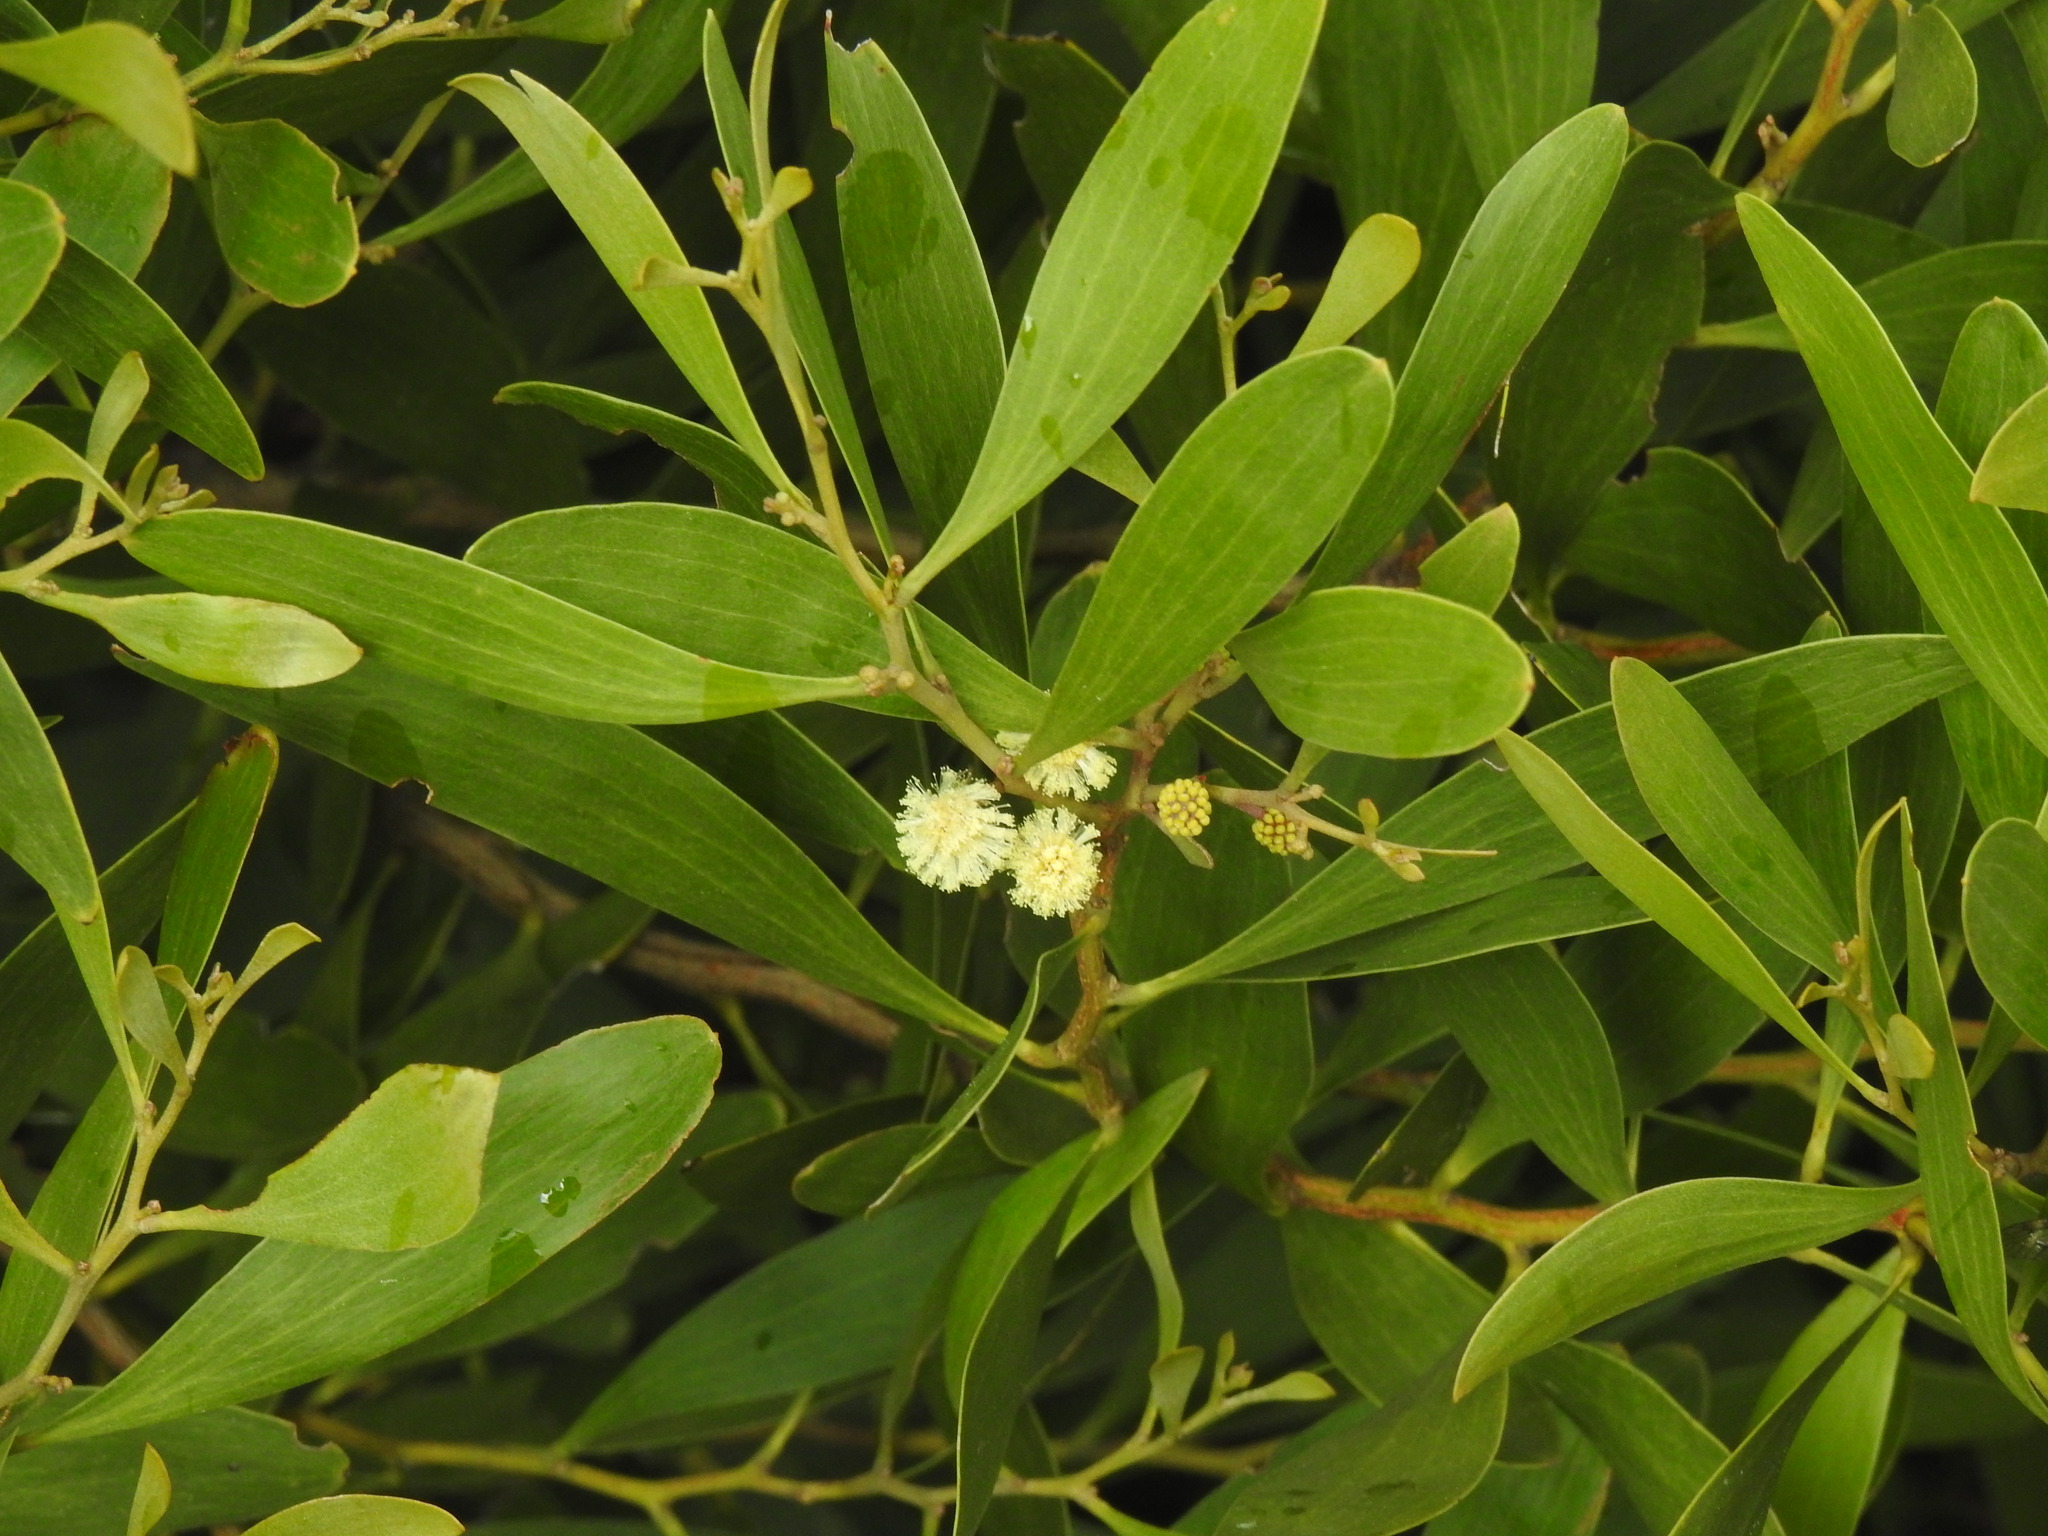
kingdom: Plantae
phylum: Tracheophyta
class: Magnoliopsida
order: Fabales
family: Fabaceae
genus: Acacia
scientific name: Acacia melanoxylon
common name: Blackwood
